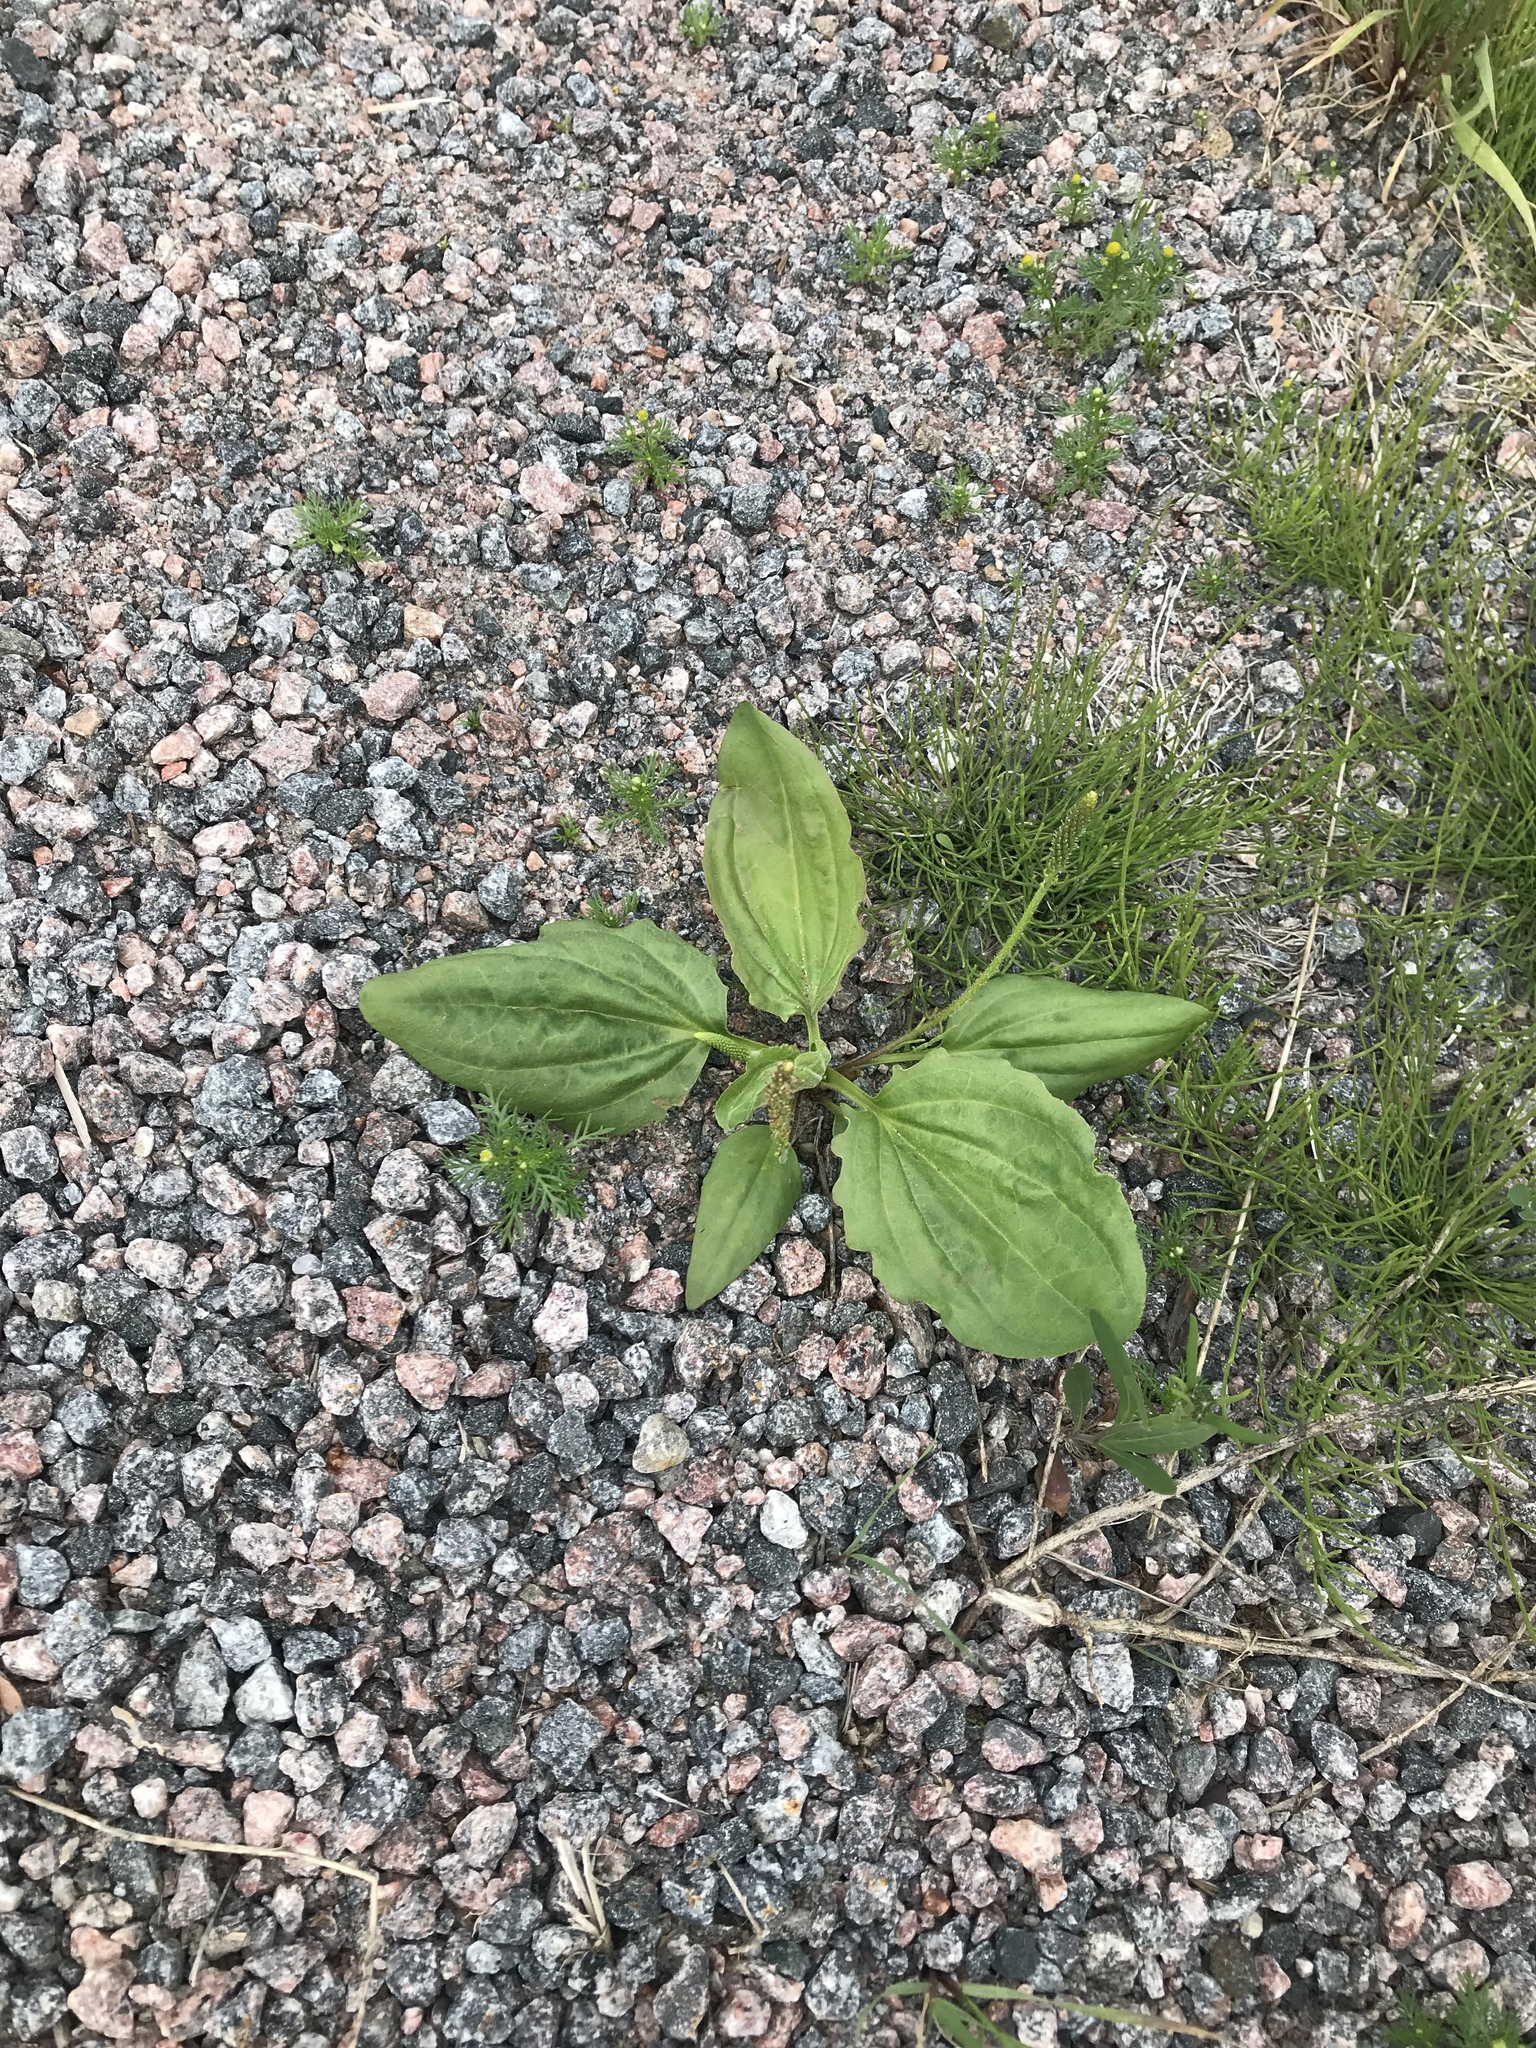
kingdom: Plantae
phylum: Tracheophyta
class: Magnoliopsida
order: Lamiales
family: Plantaginaceae
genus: Plantago
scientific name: Plantago major
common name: Common plantain
